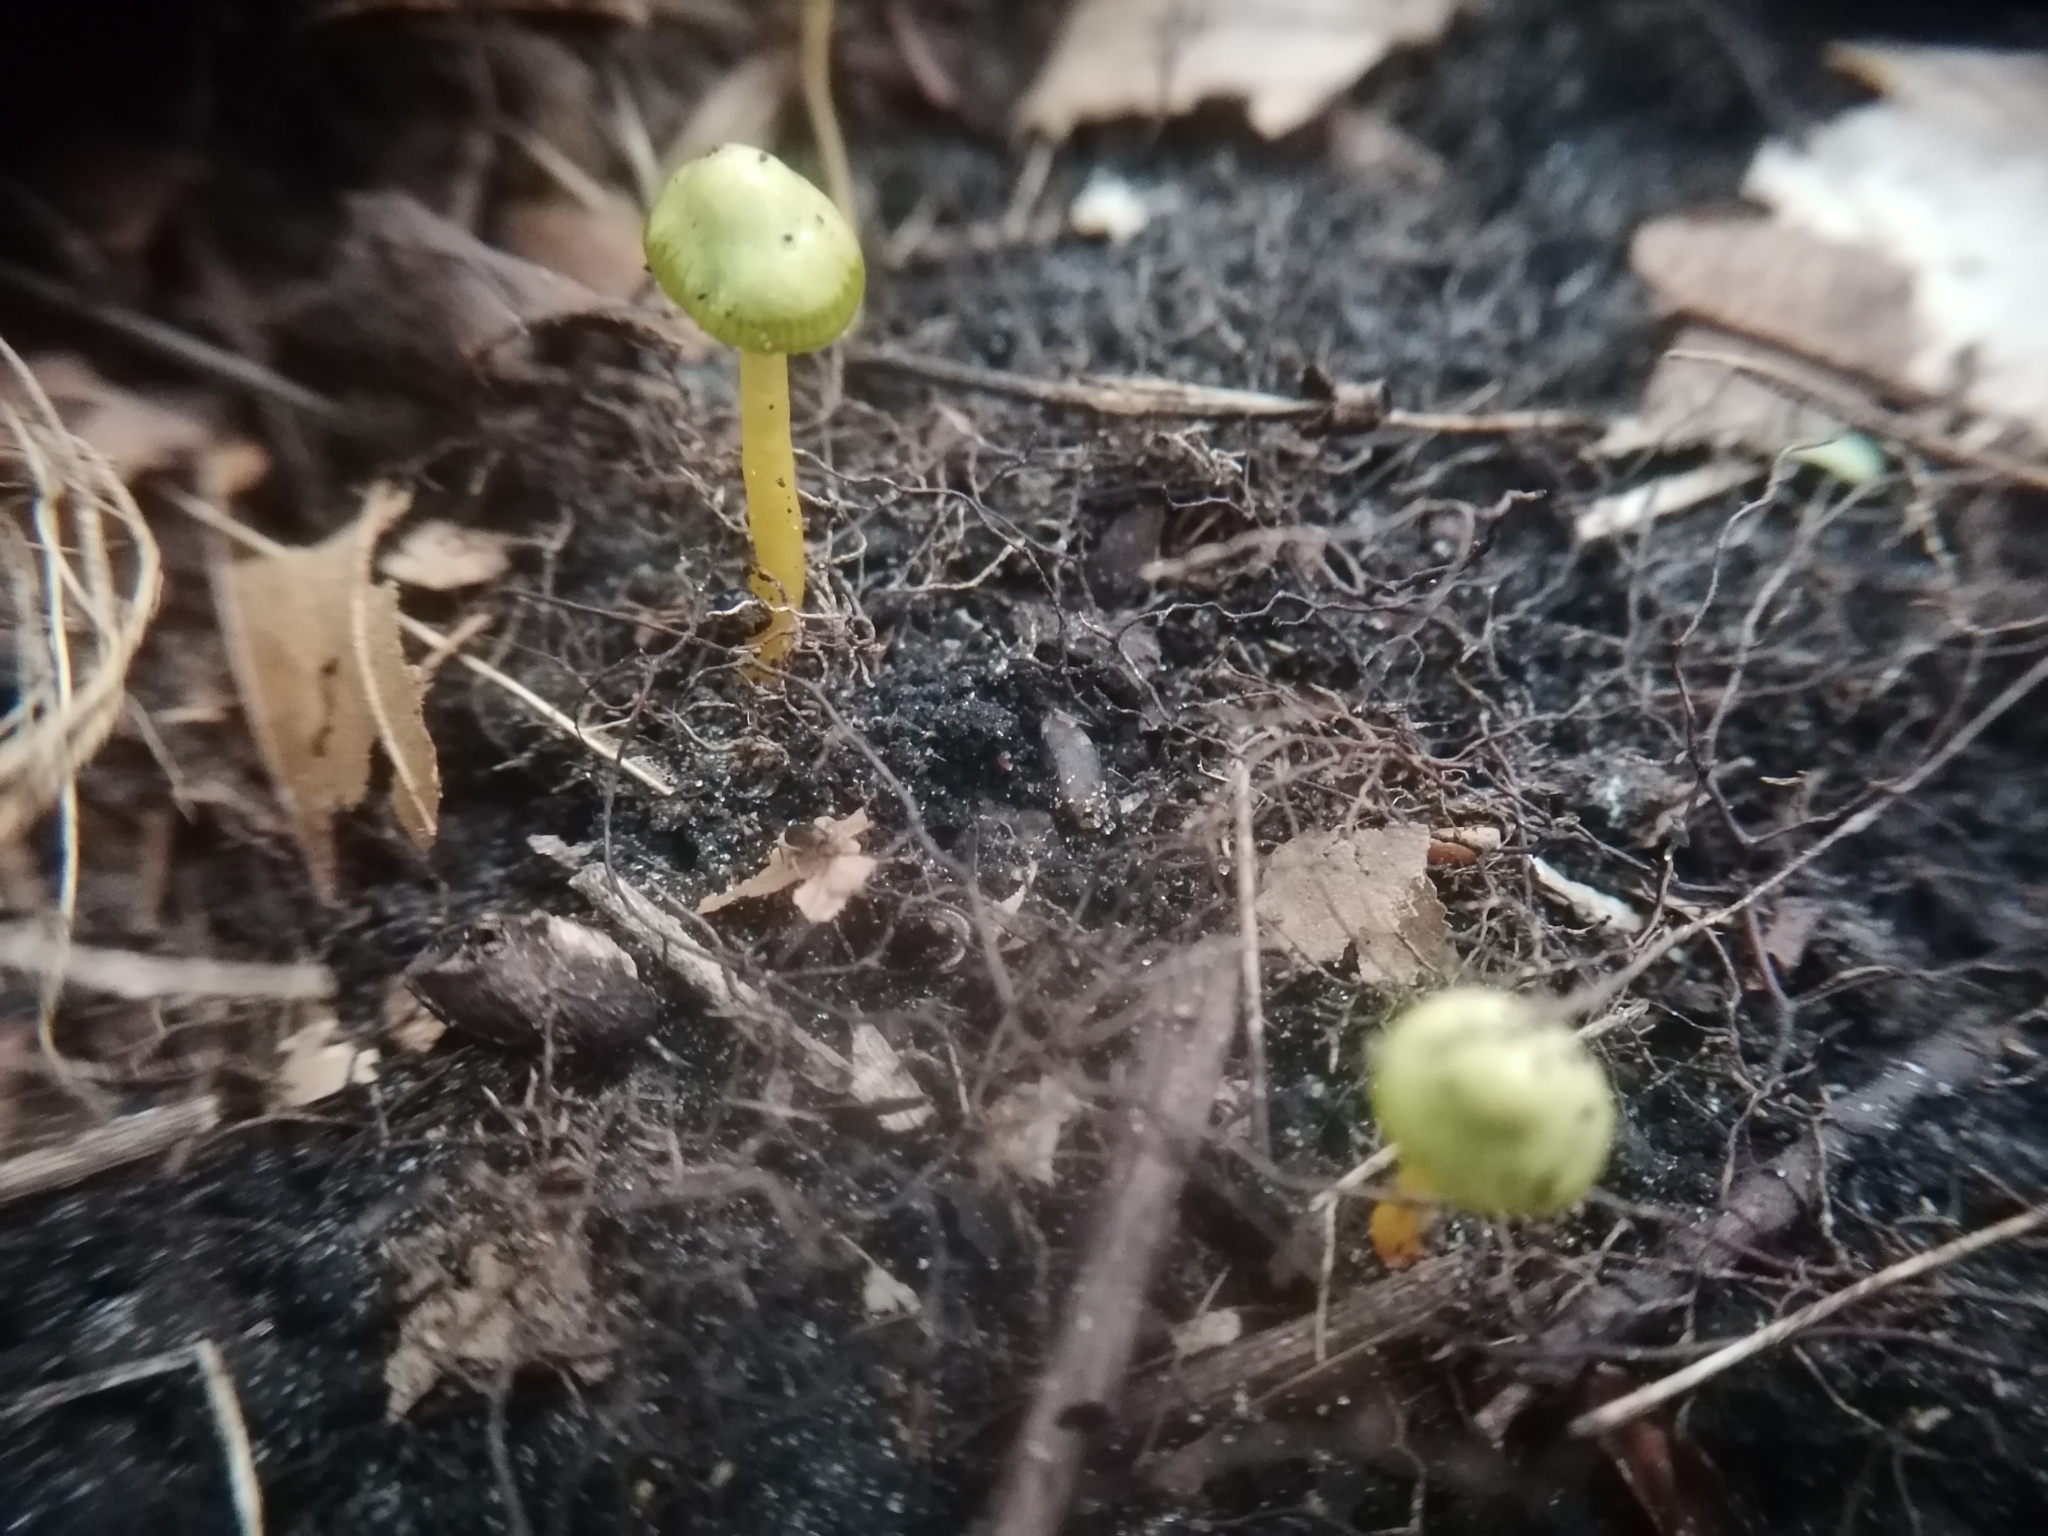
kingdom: Fungi
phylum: Basidiomycota
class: Agaricomycetes
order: Agaricales
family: Hygrophoraceae
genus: Gliophorus
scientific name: Gliophorus psittacinus
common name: Parrot wax-cap
